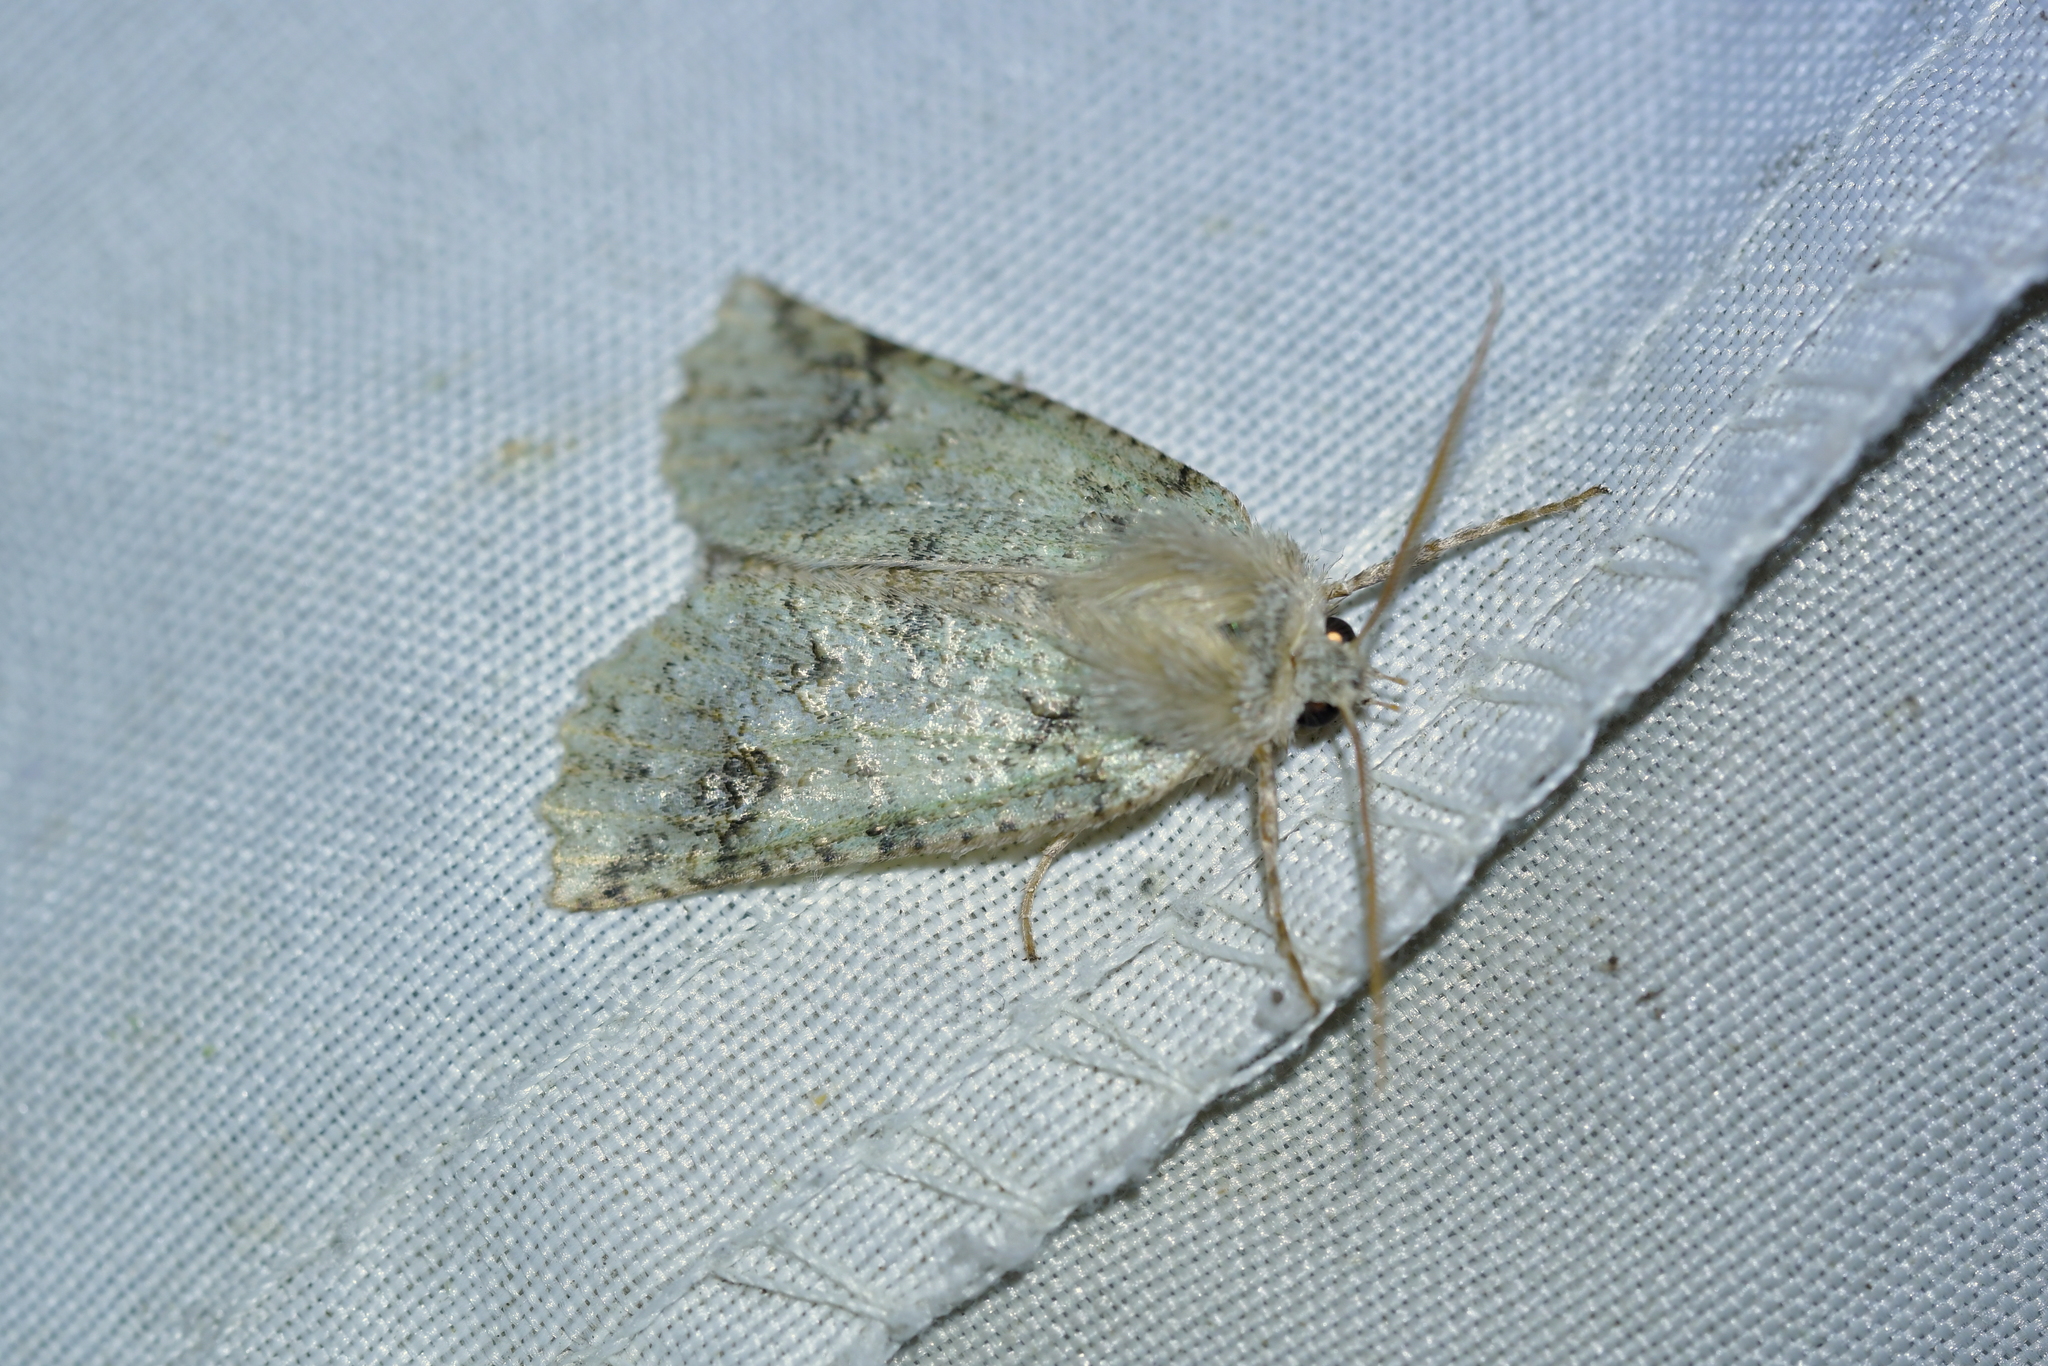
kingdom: Animalia
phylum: Arthropoda
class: Insecta
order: Lepidoptera
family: Geometridae
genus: Declana
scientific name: Declana floccosa
